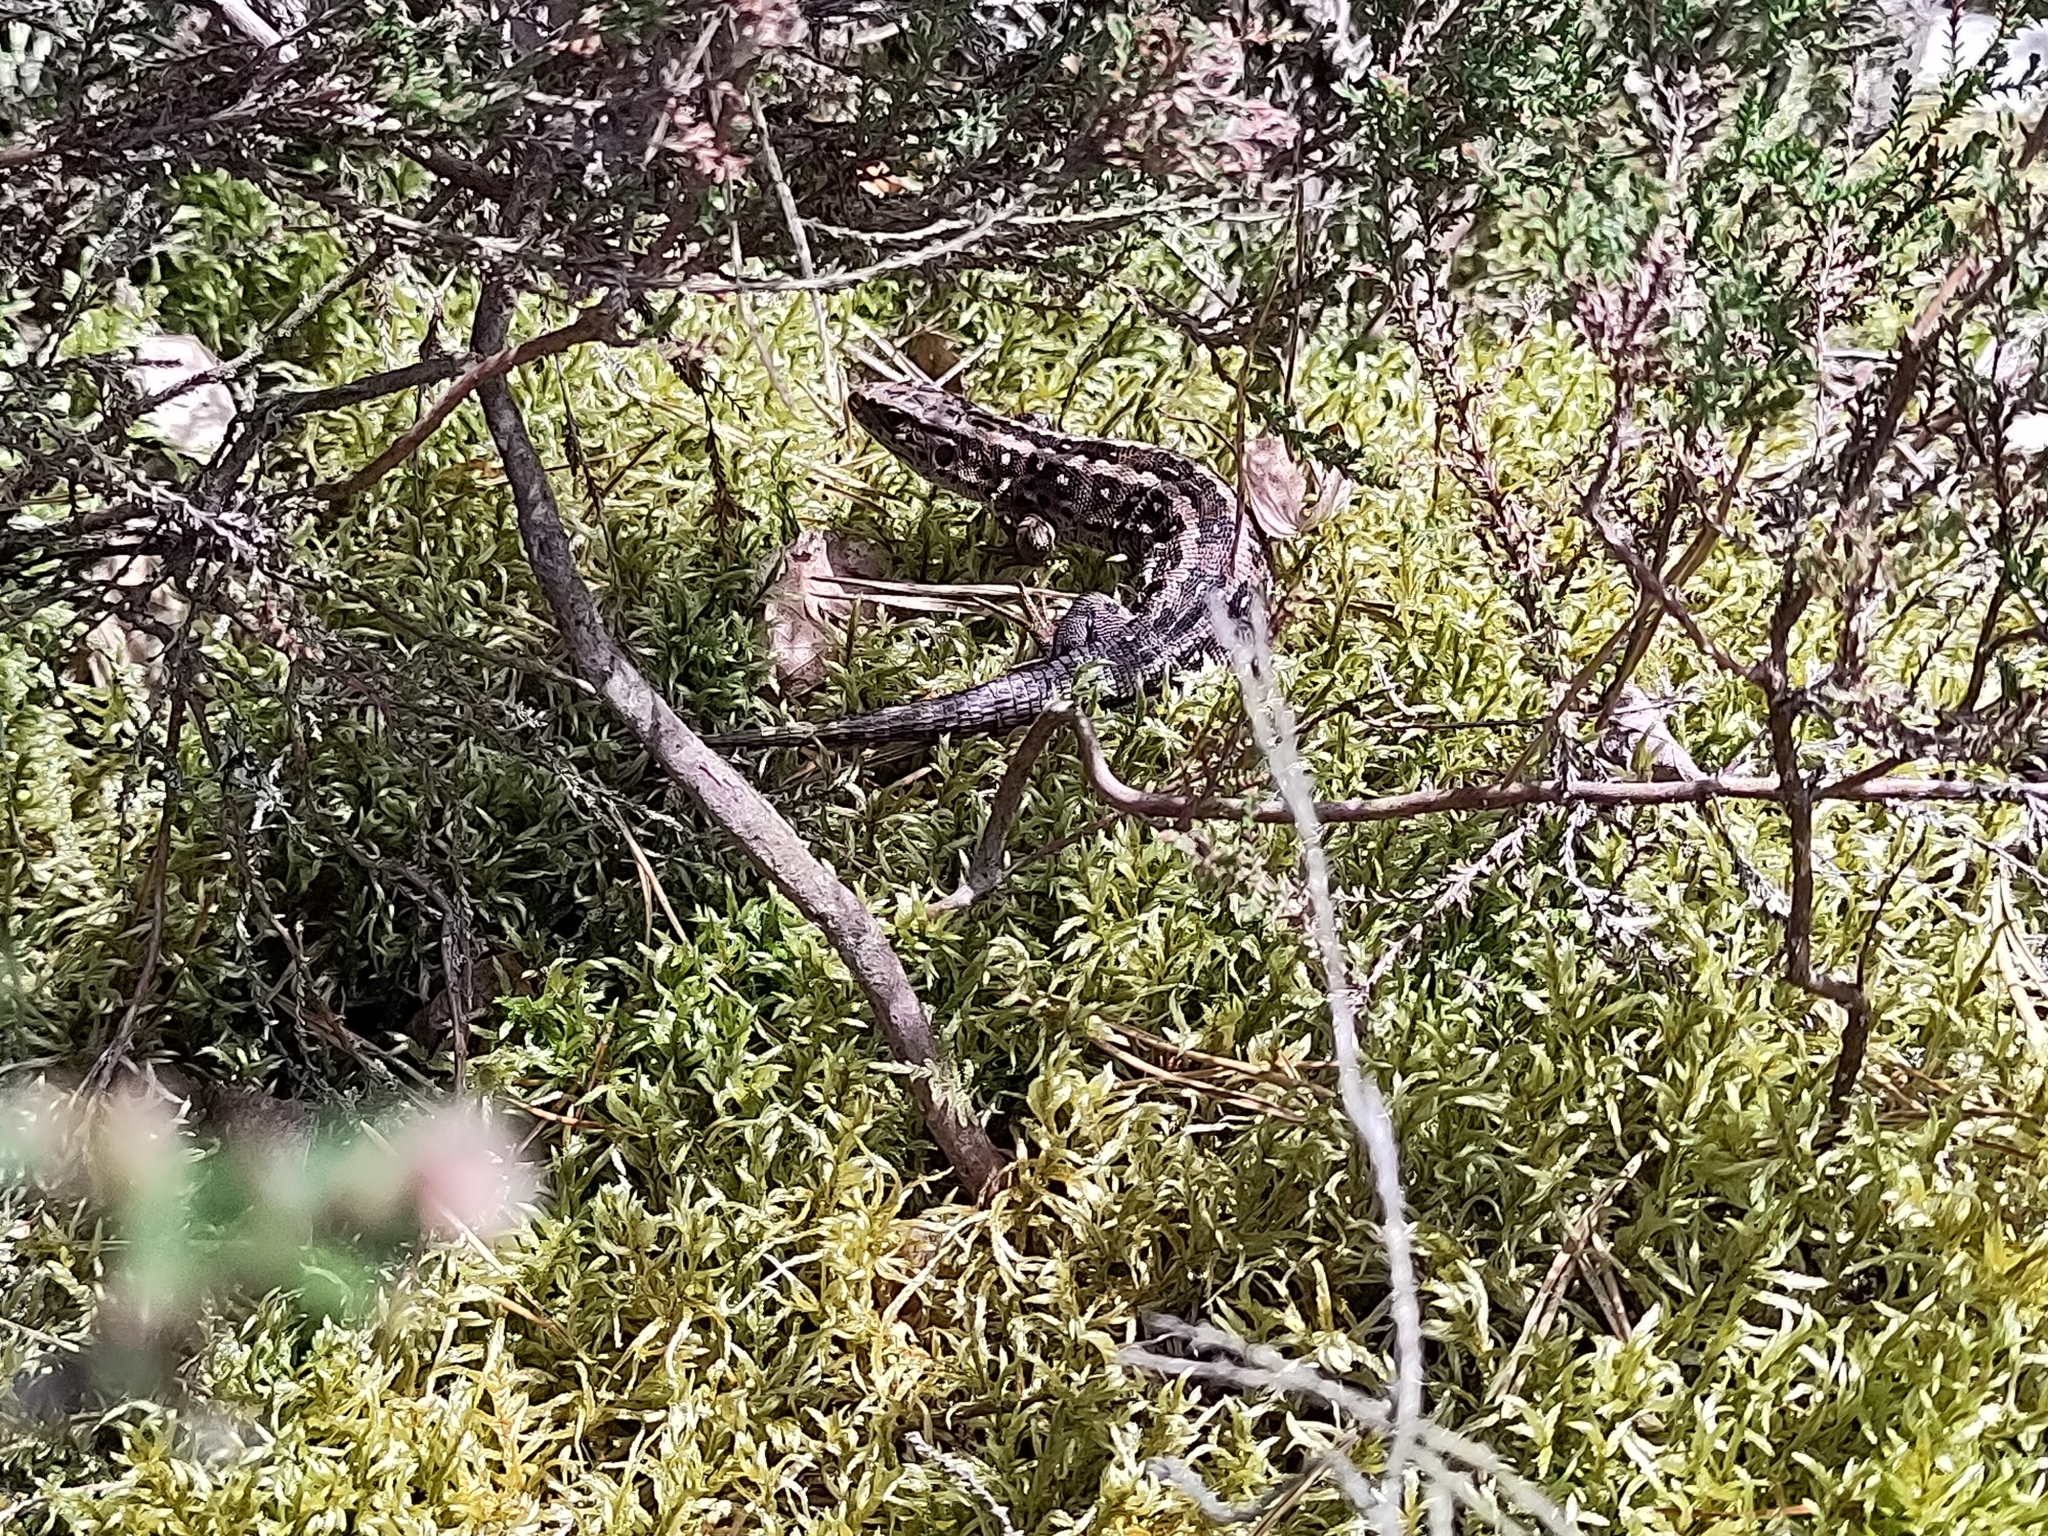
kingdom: Animalia
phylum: Chordata
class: Squamata
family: Lacertidae
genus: Lacerta
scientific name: Lacerta agilis
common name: Sand lizard
